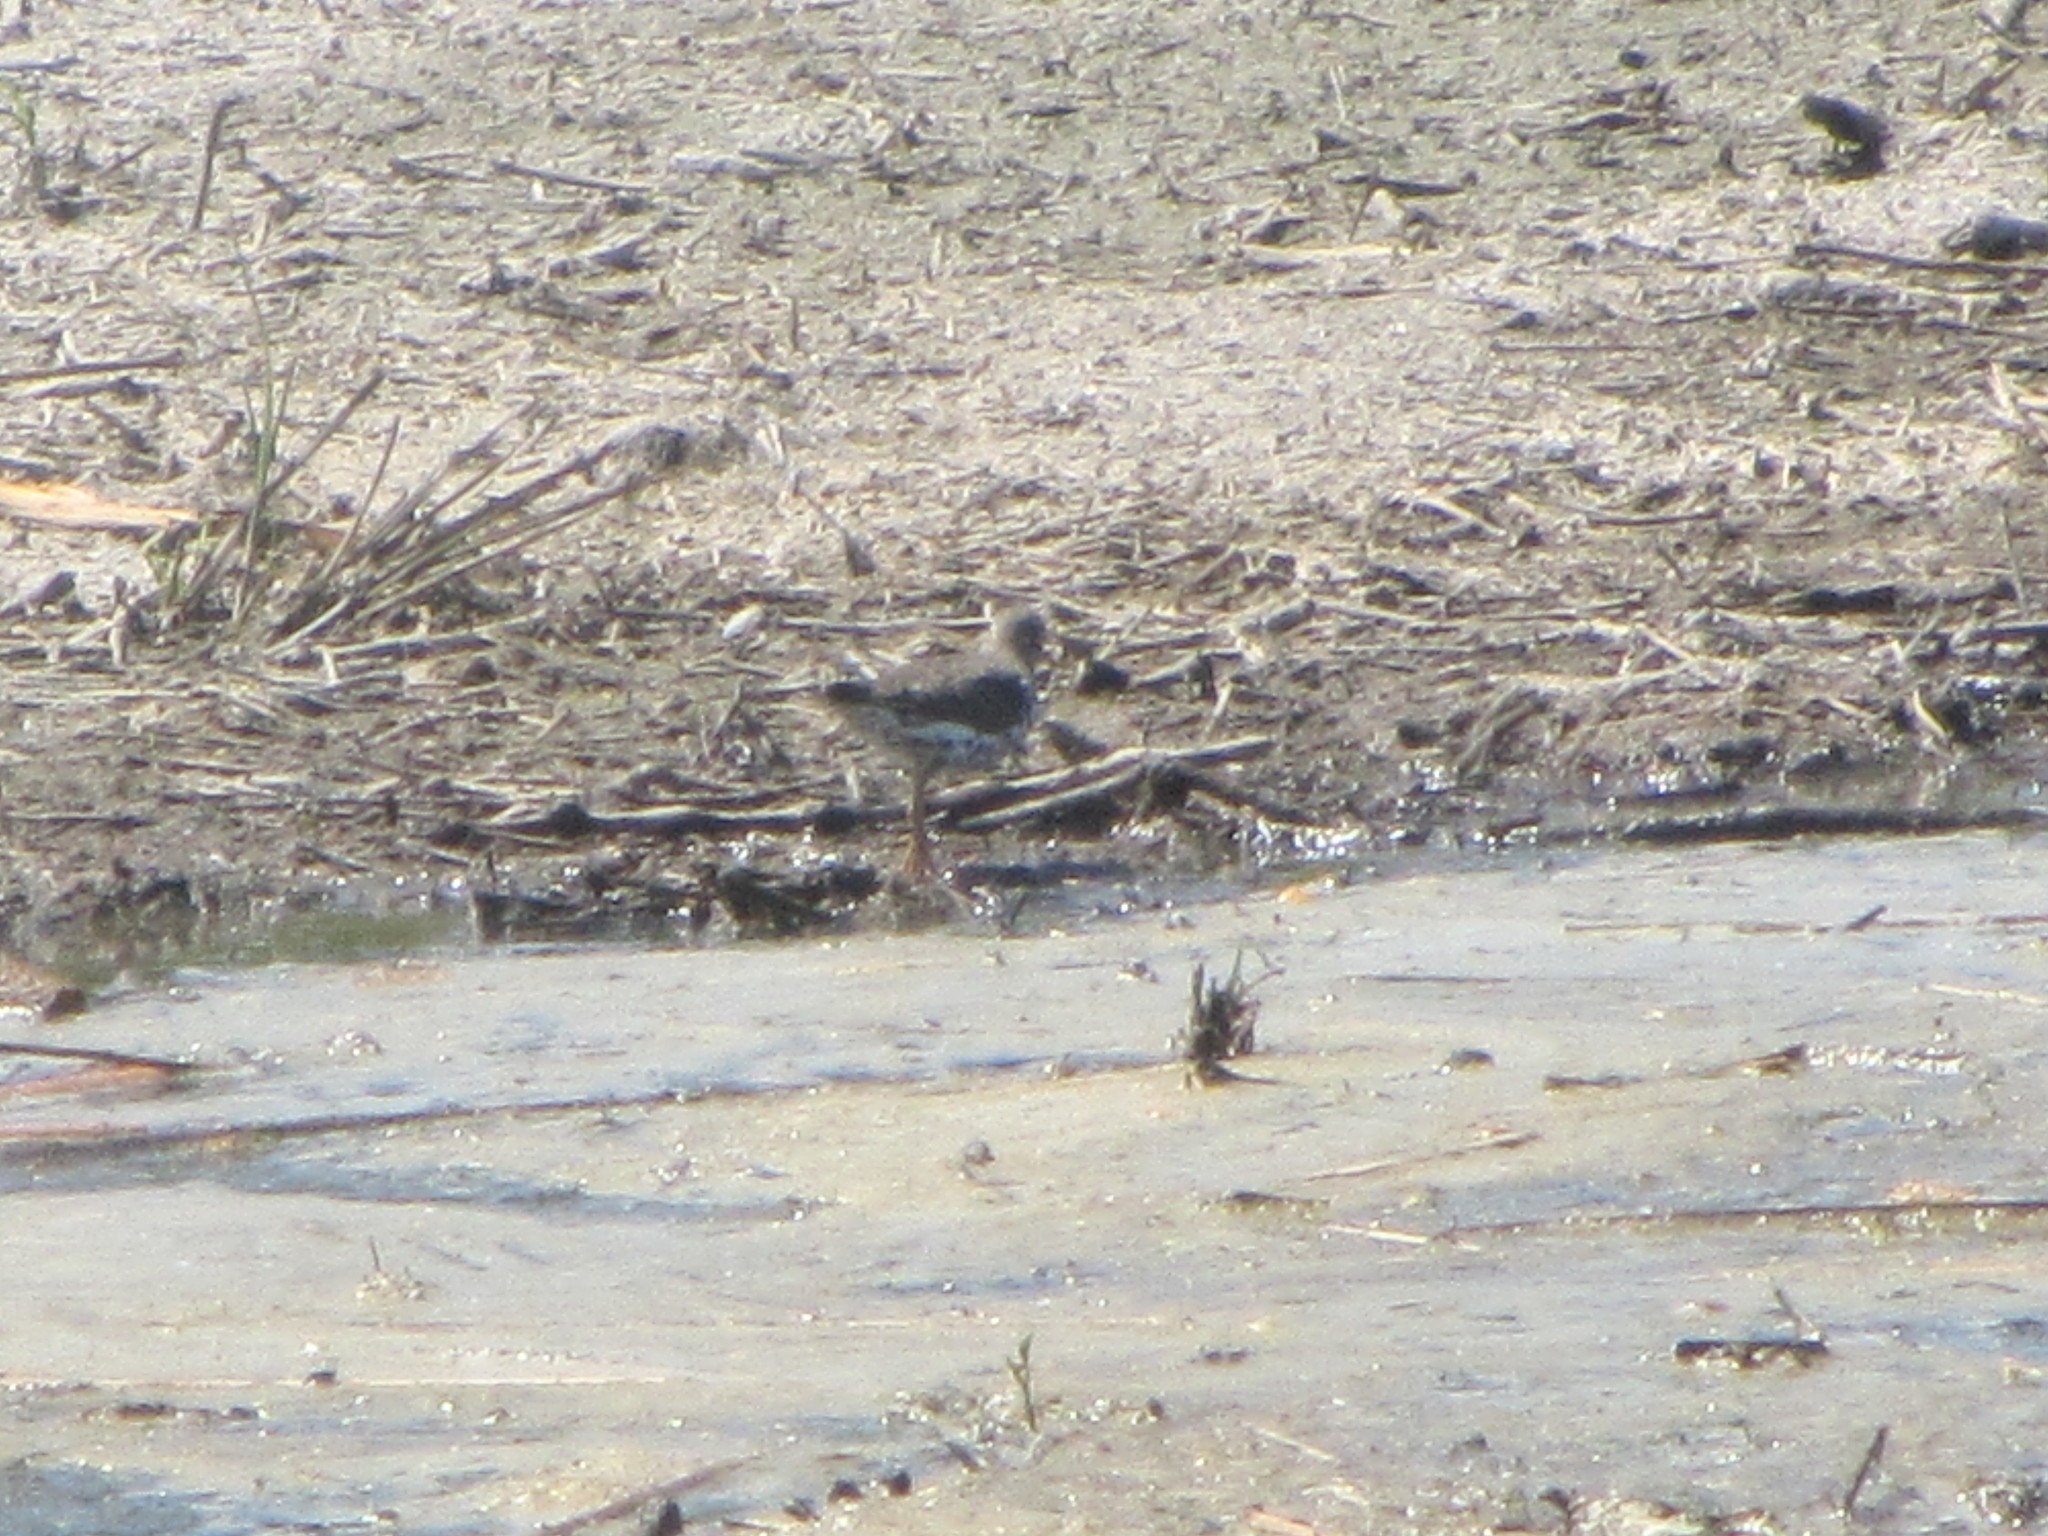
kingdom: Animalia
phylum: Chordata
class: Aves
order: Charadriiformes
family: Scolopacidae
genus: Actitis
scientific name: Actitis macularius
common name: Spotted sandpiper
